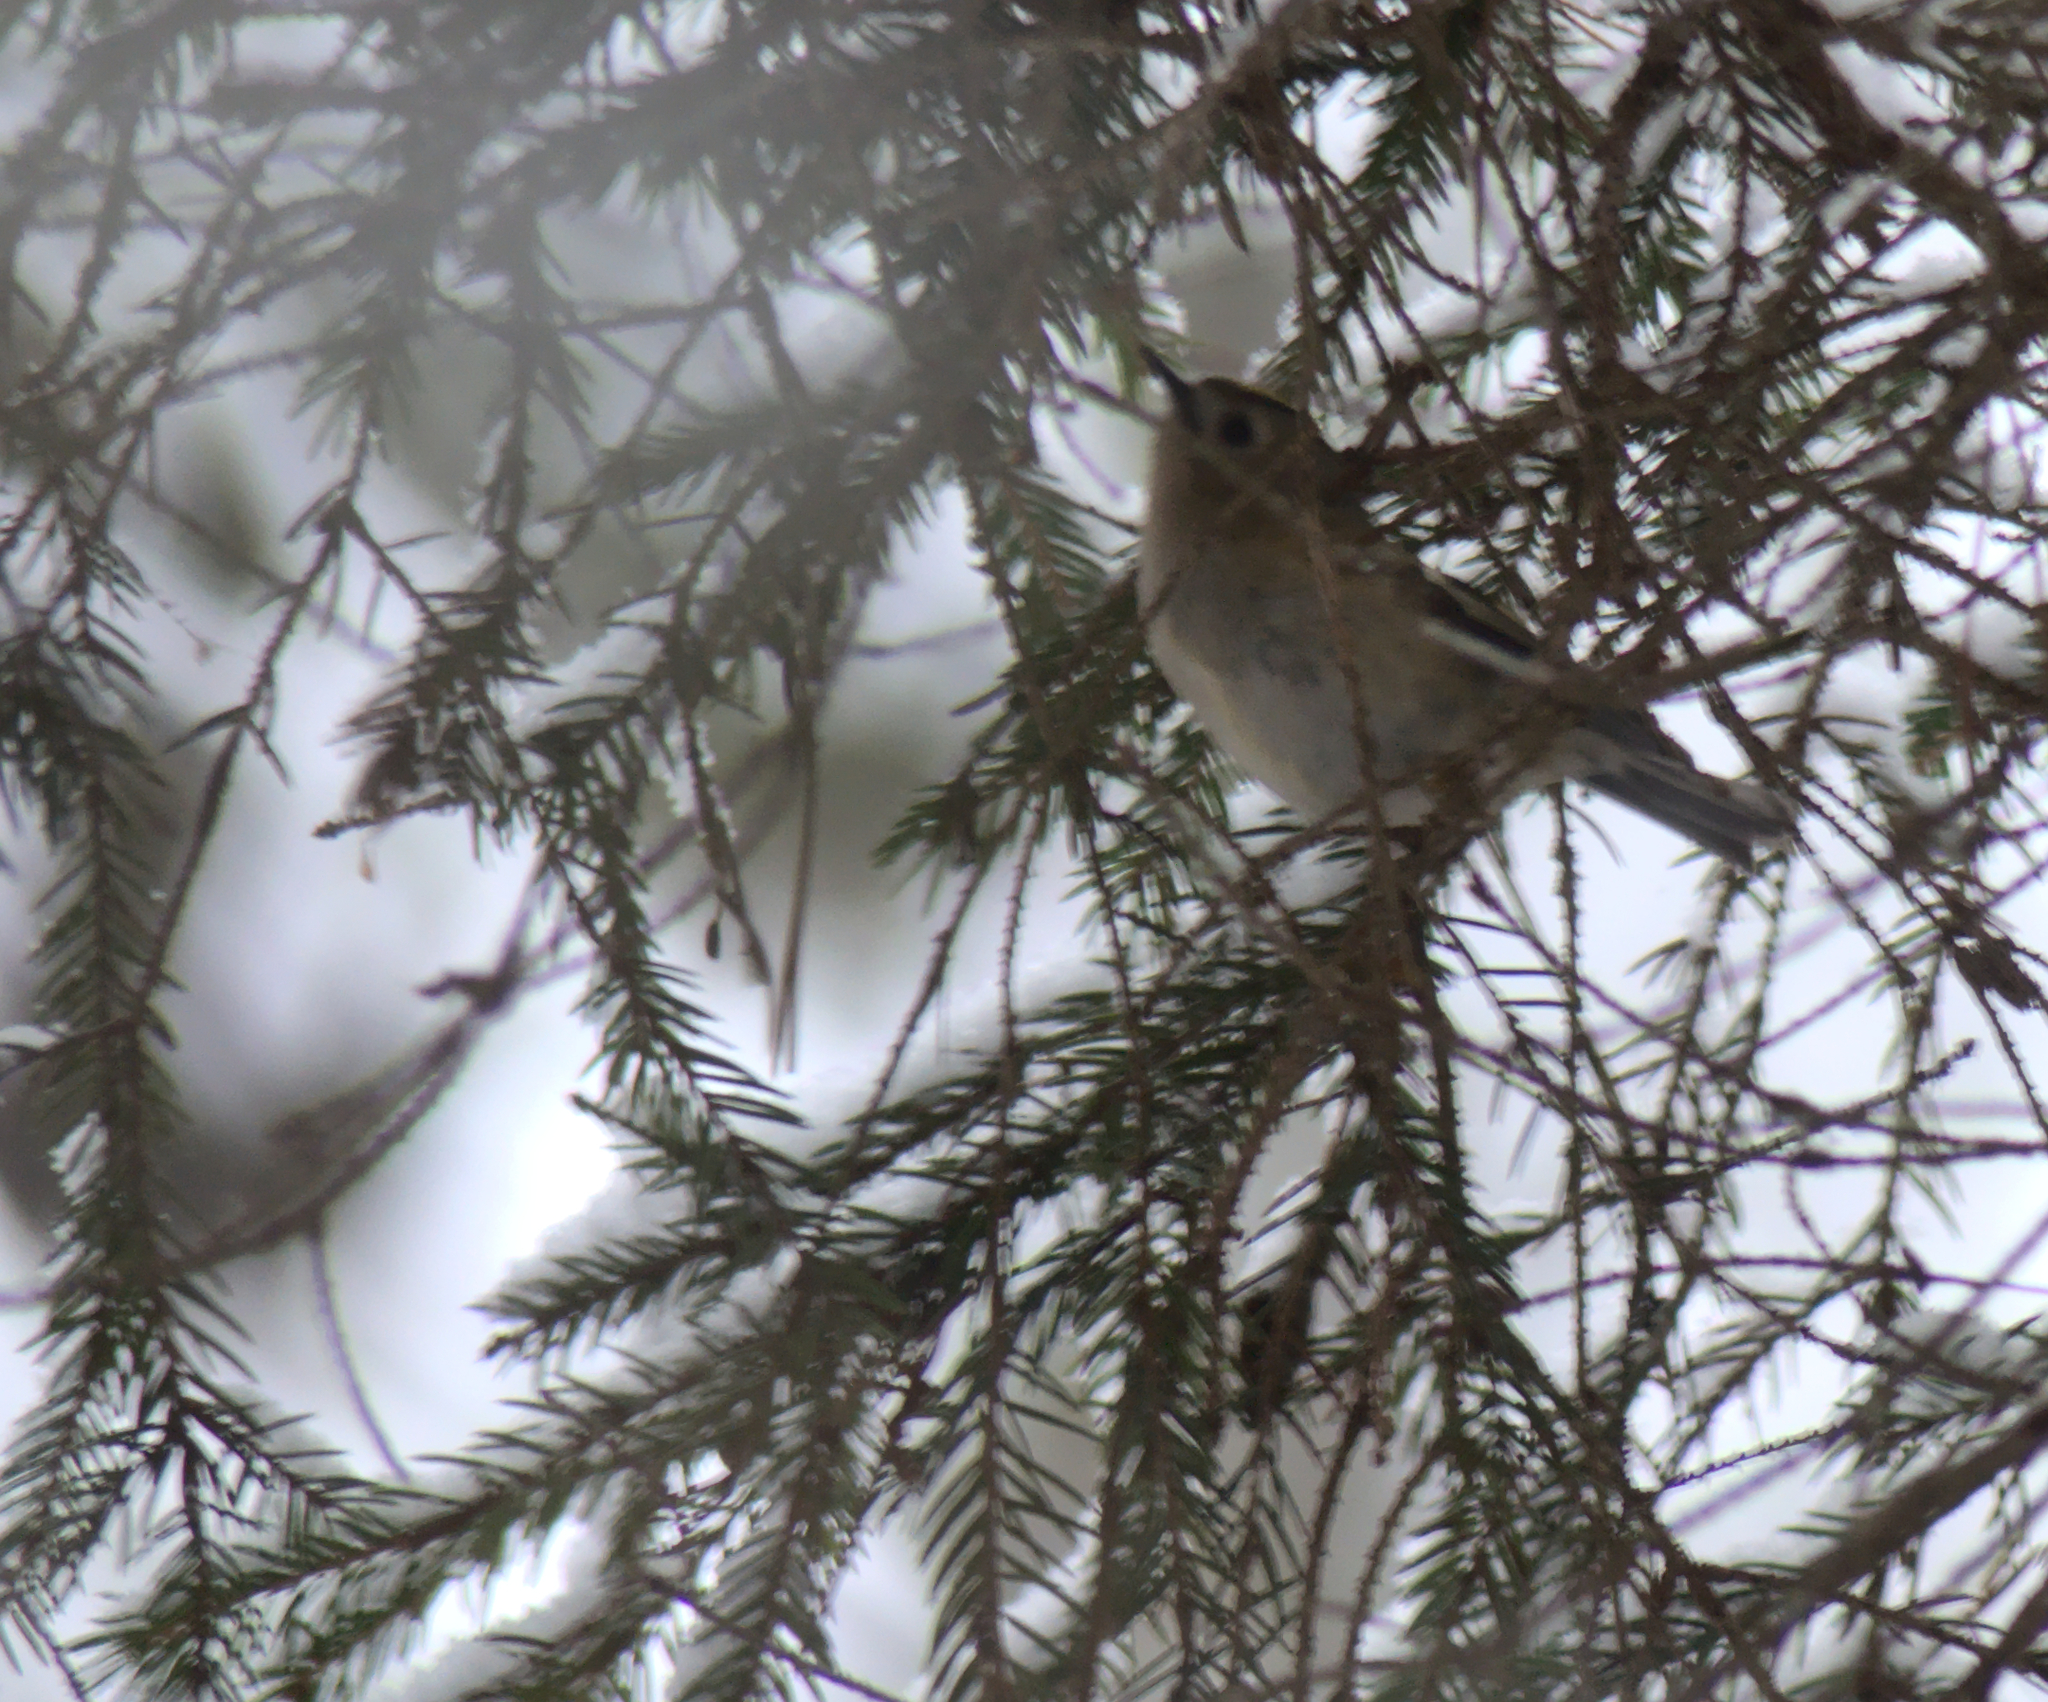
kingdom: Animalia
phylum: Chordata
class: Aves
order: Passeriformes
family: Regulidae
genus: Regulus
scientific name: Regulus regulus
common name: Goldcrest
